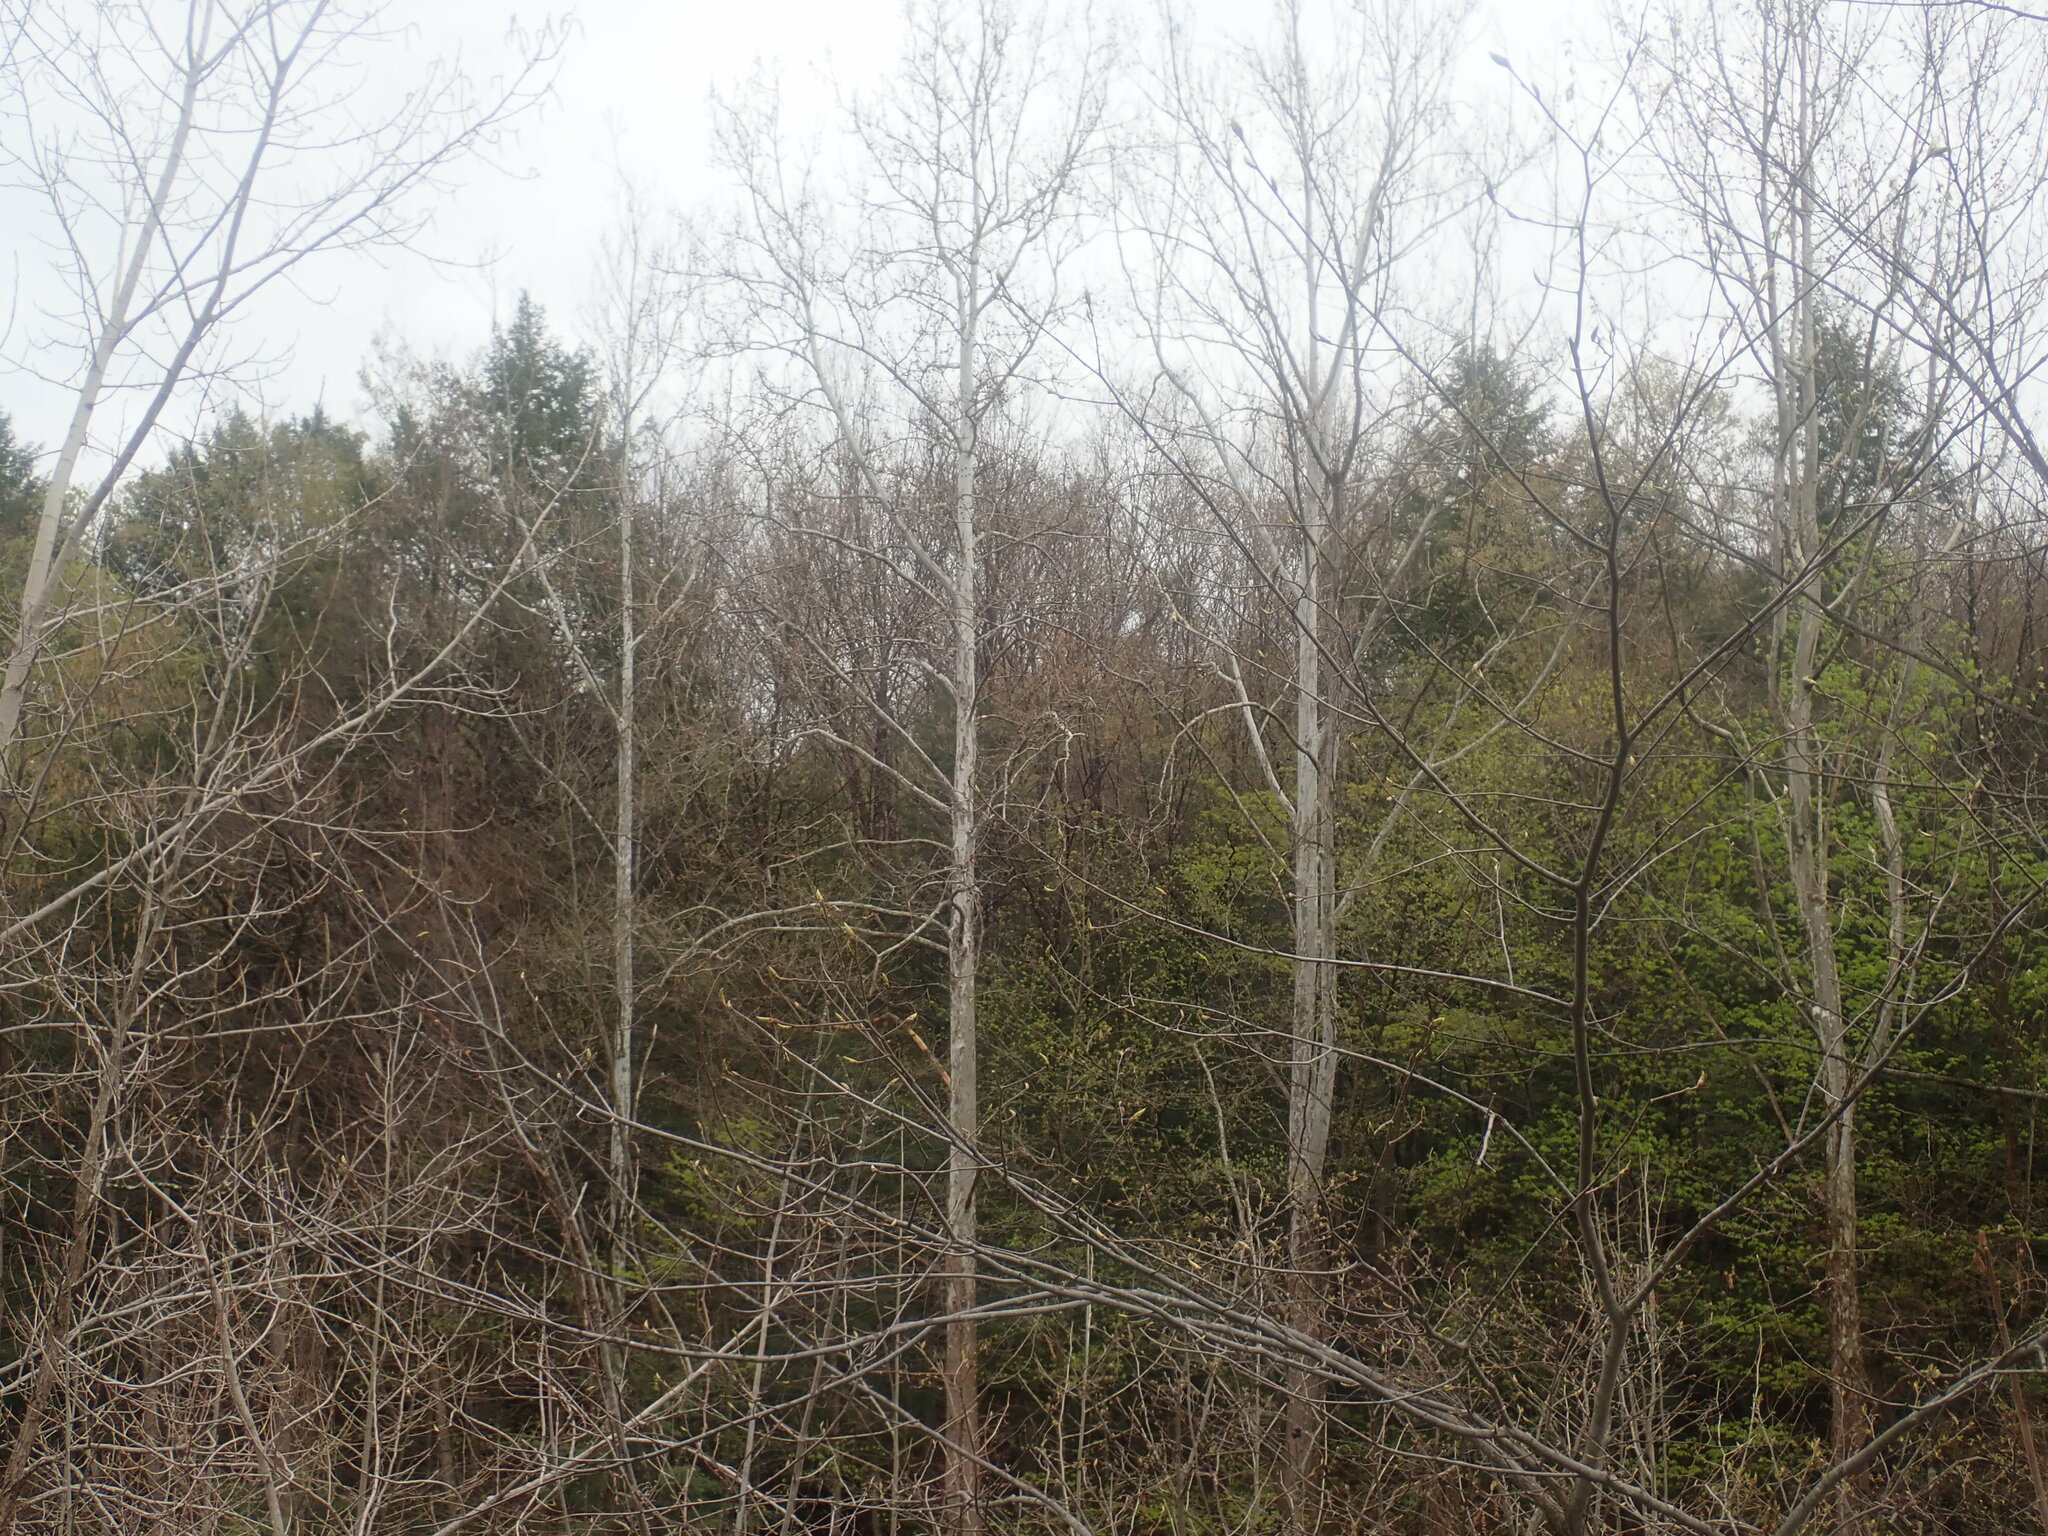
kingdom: Plantae
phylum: Tracheophyta
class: Magnoliopsida
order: Proteales
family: Platanaceae
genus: Platanus
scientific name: Platanus occidentalis
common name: American sycamore
